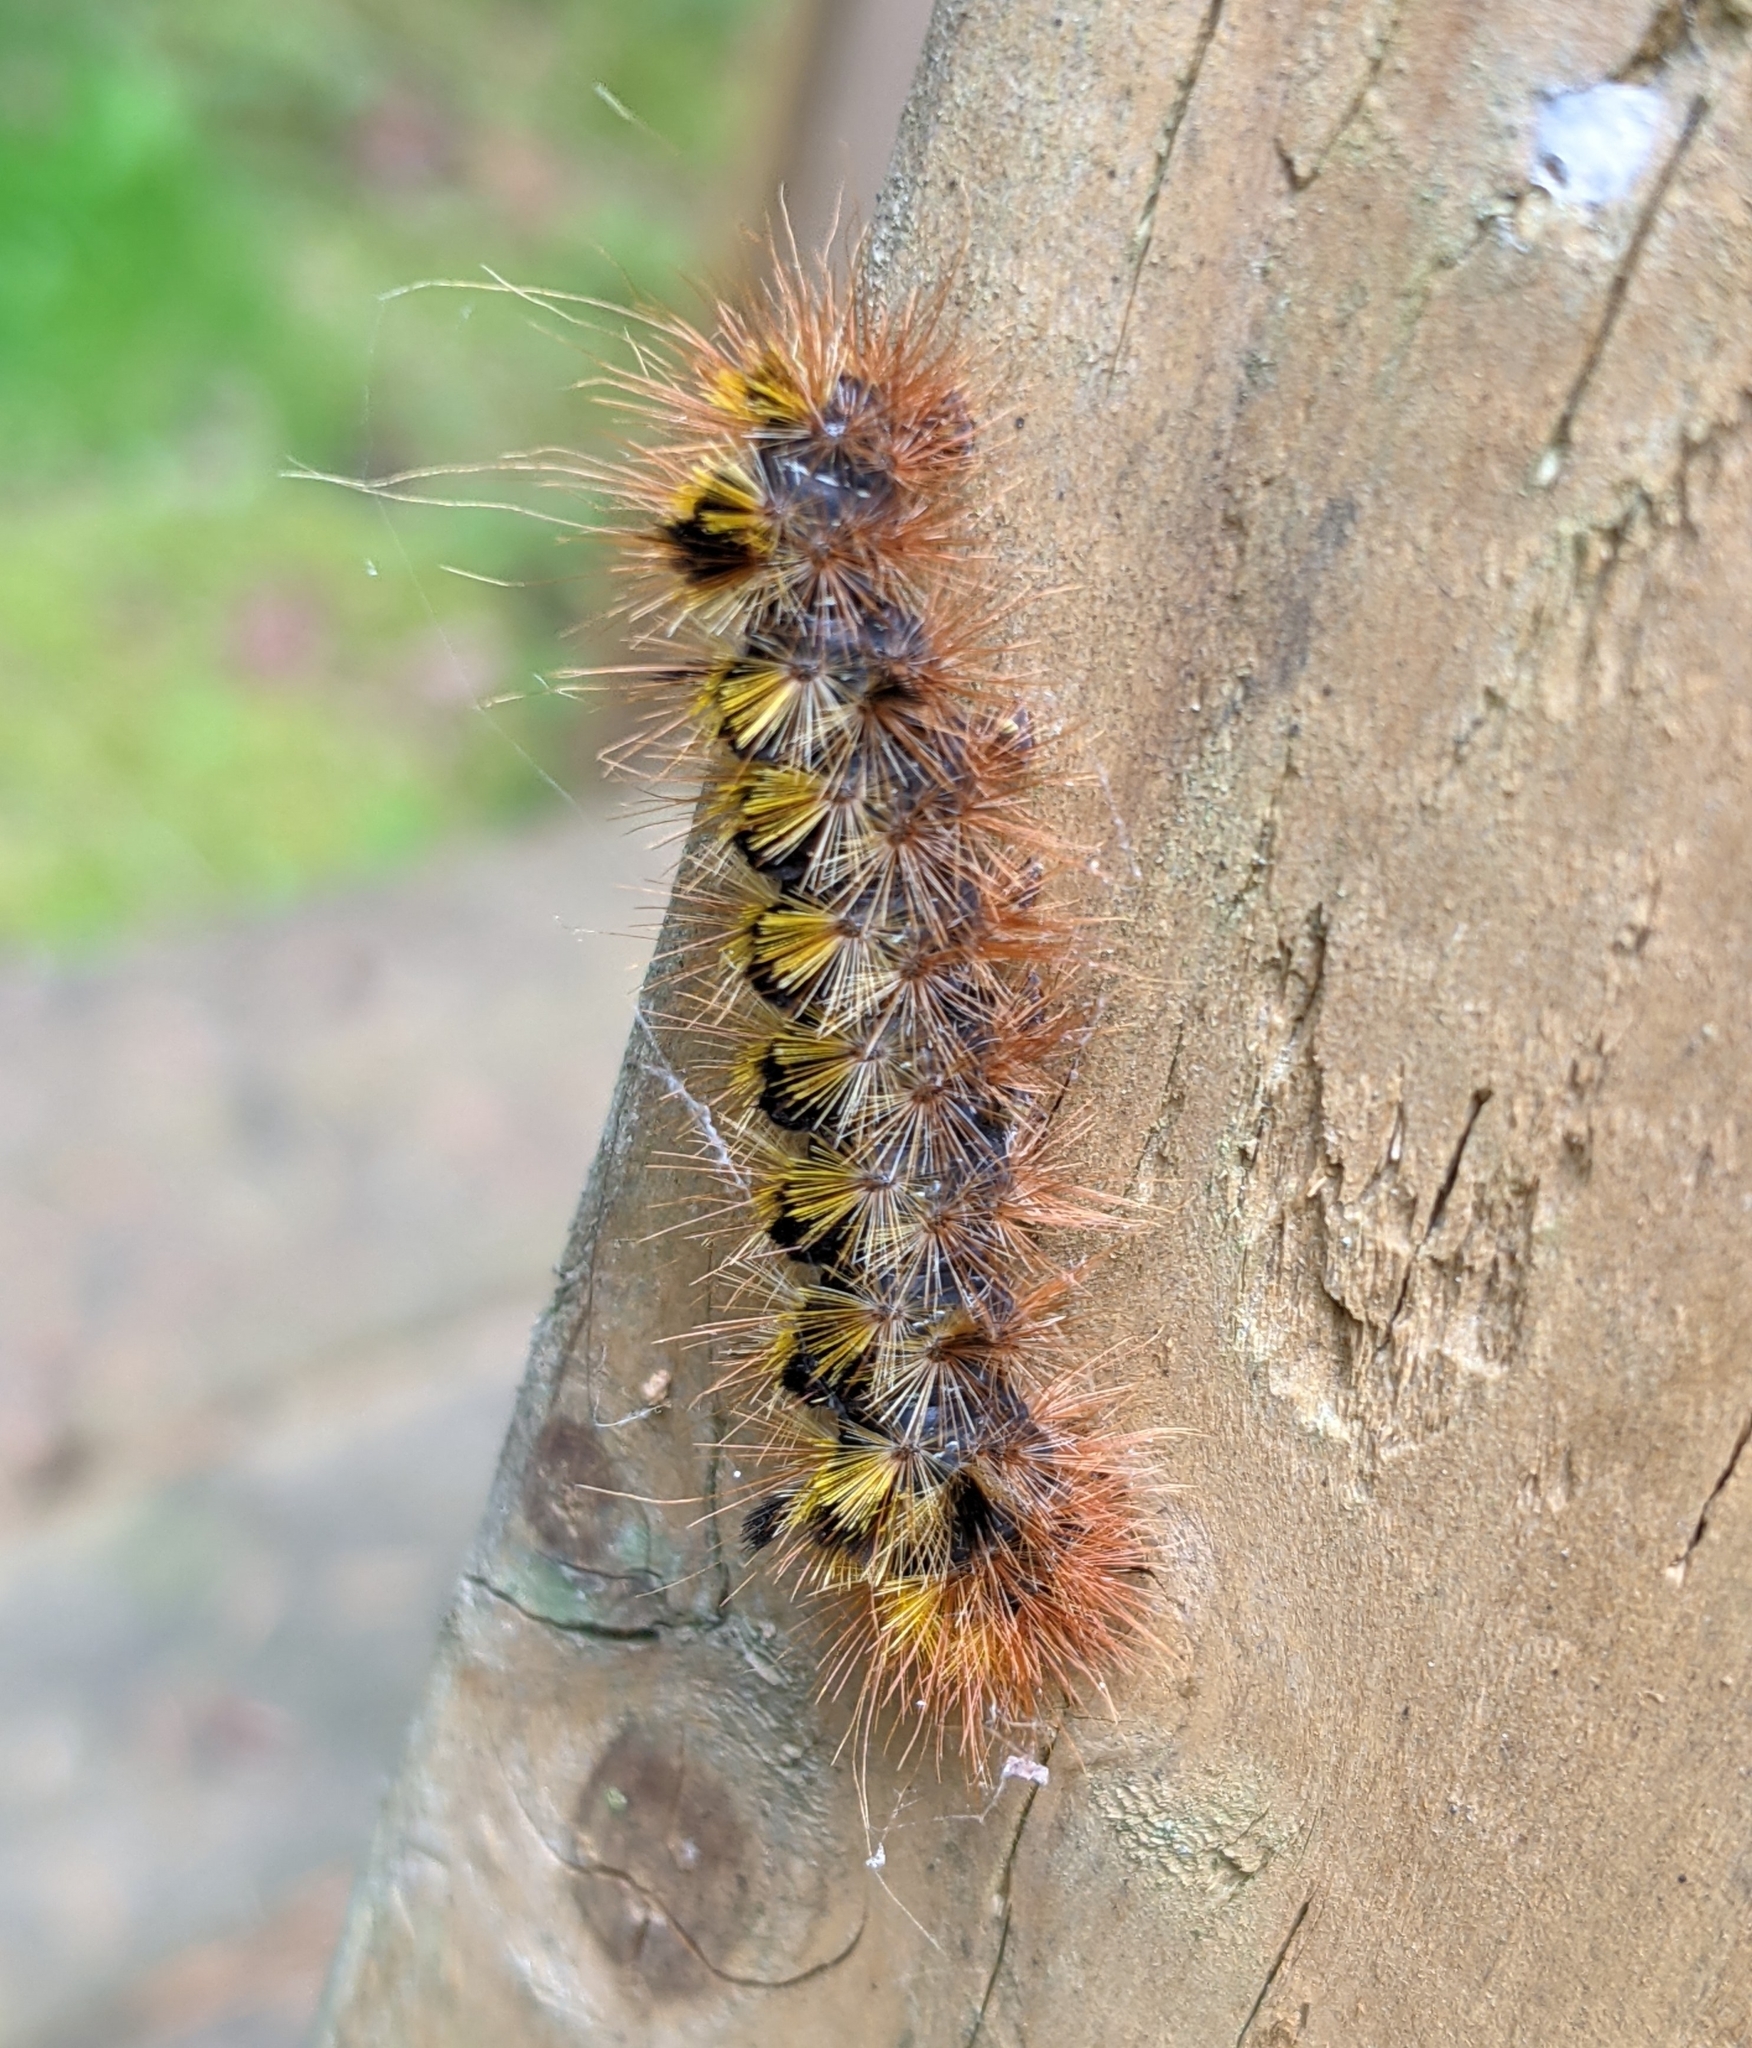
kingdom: Animalia
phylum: Arthropoda
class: Insecta
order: Lepidoptera
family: Erebidae
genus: Lophocampa
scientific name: Lophocampa argentata
